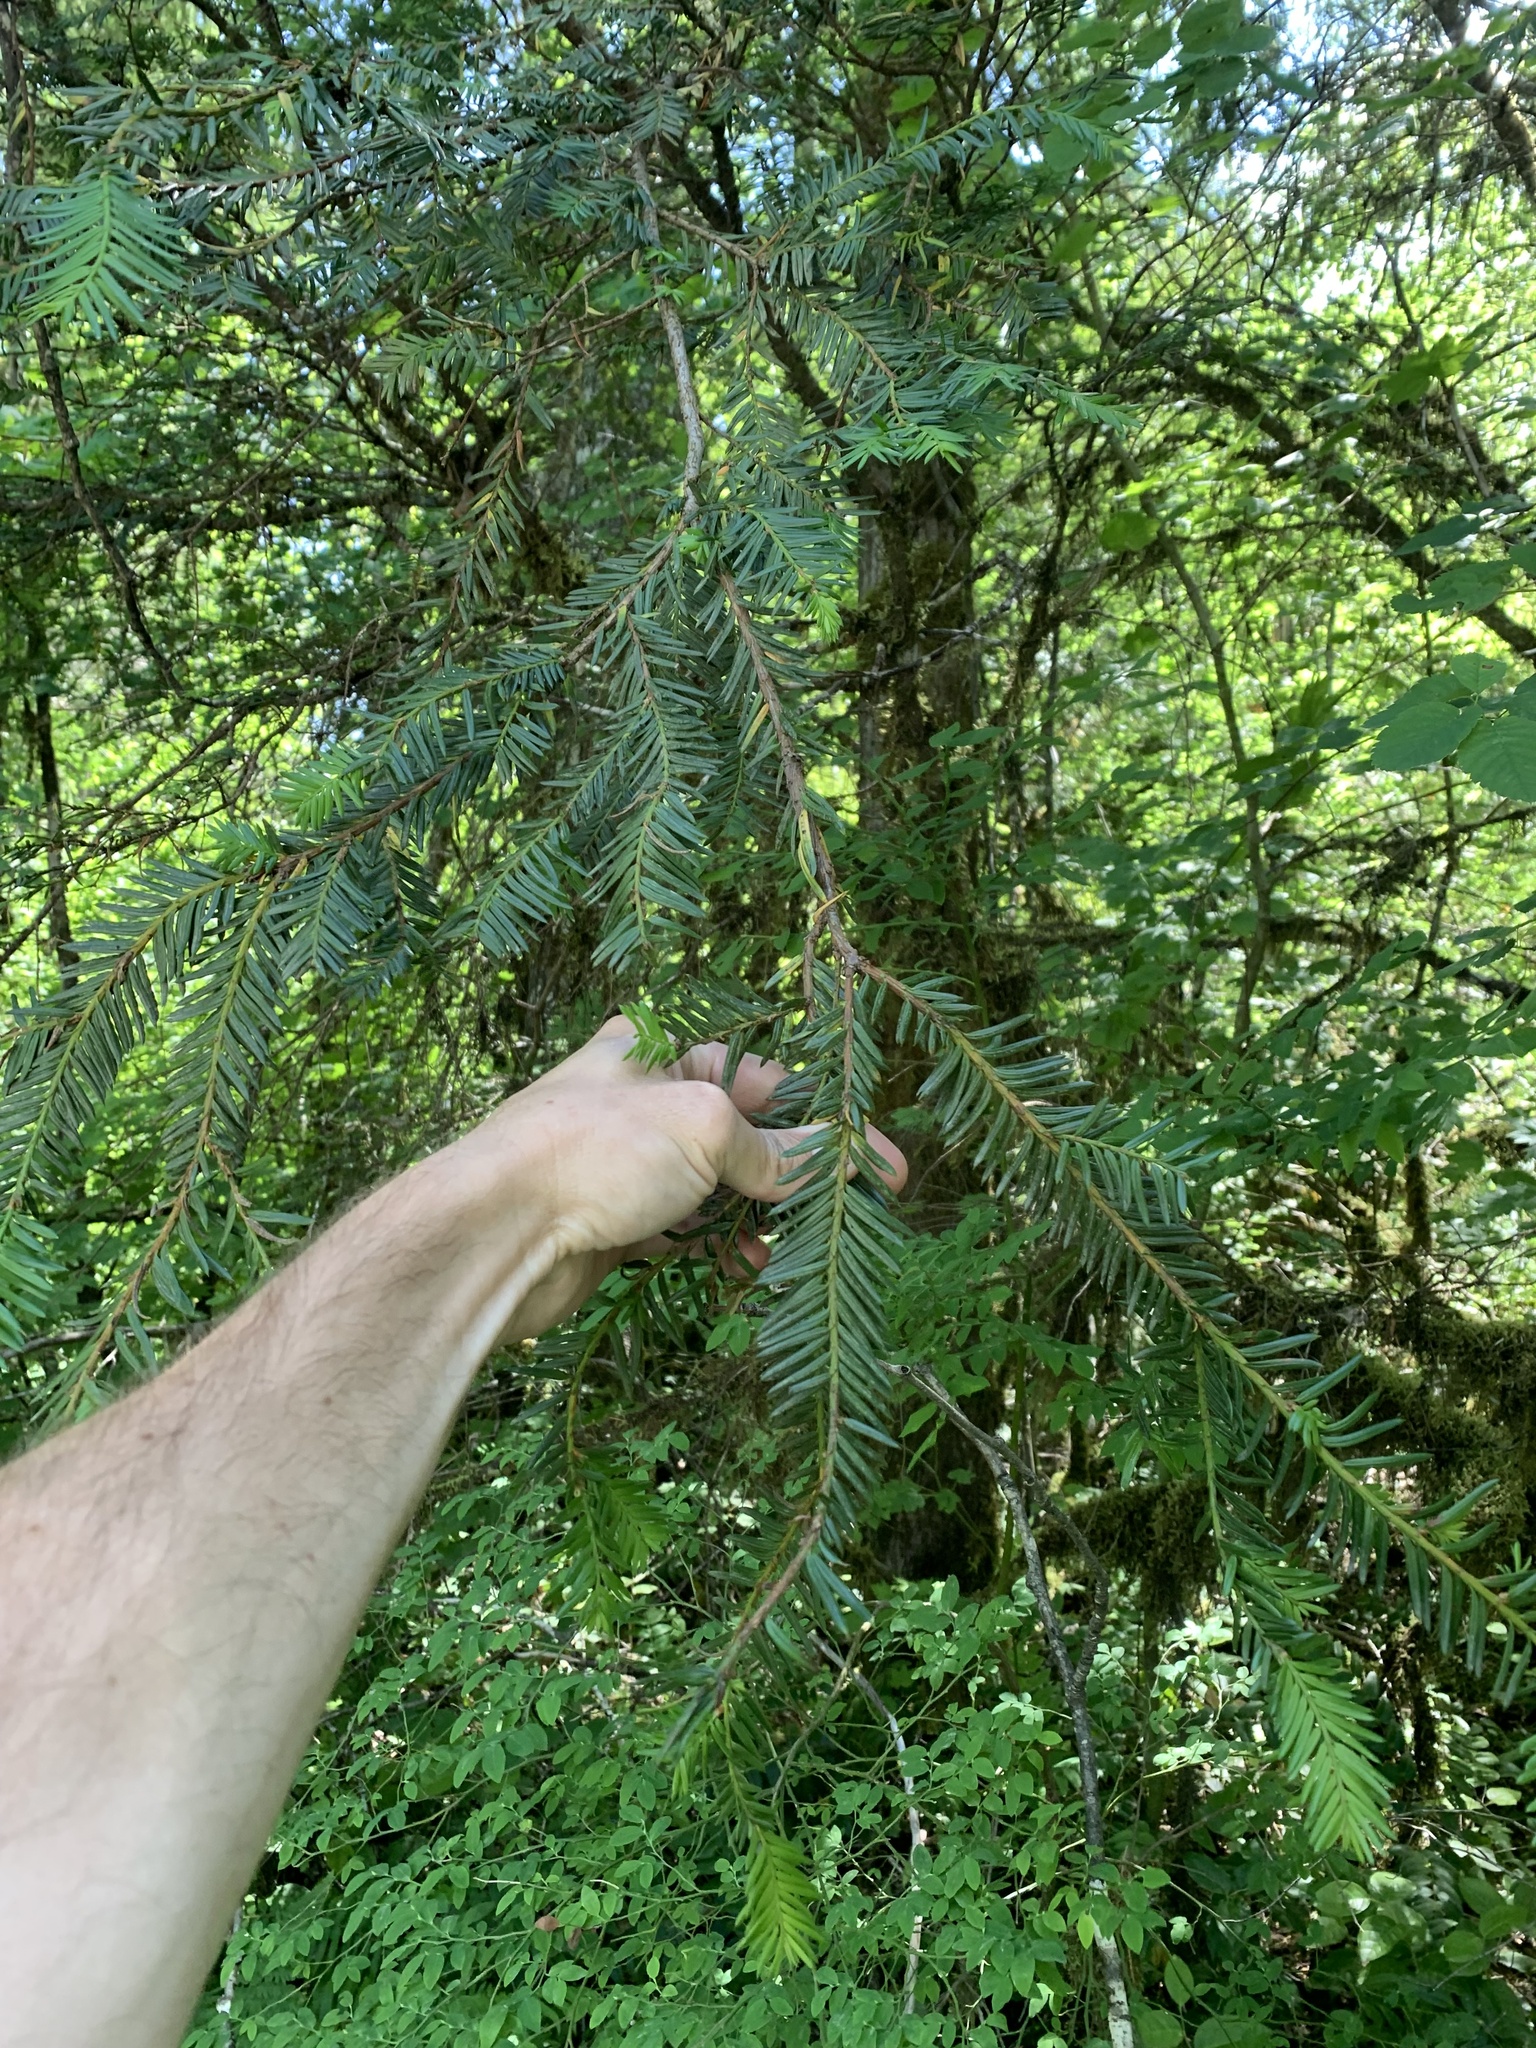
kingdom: Plantae
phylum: Tracheophyta
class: Pinopsida
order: Pinales
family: Taxaceae
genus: Taxus
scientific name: Taxus brevifolia
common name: Pacific yew
